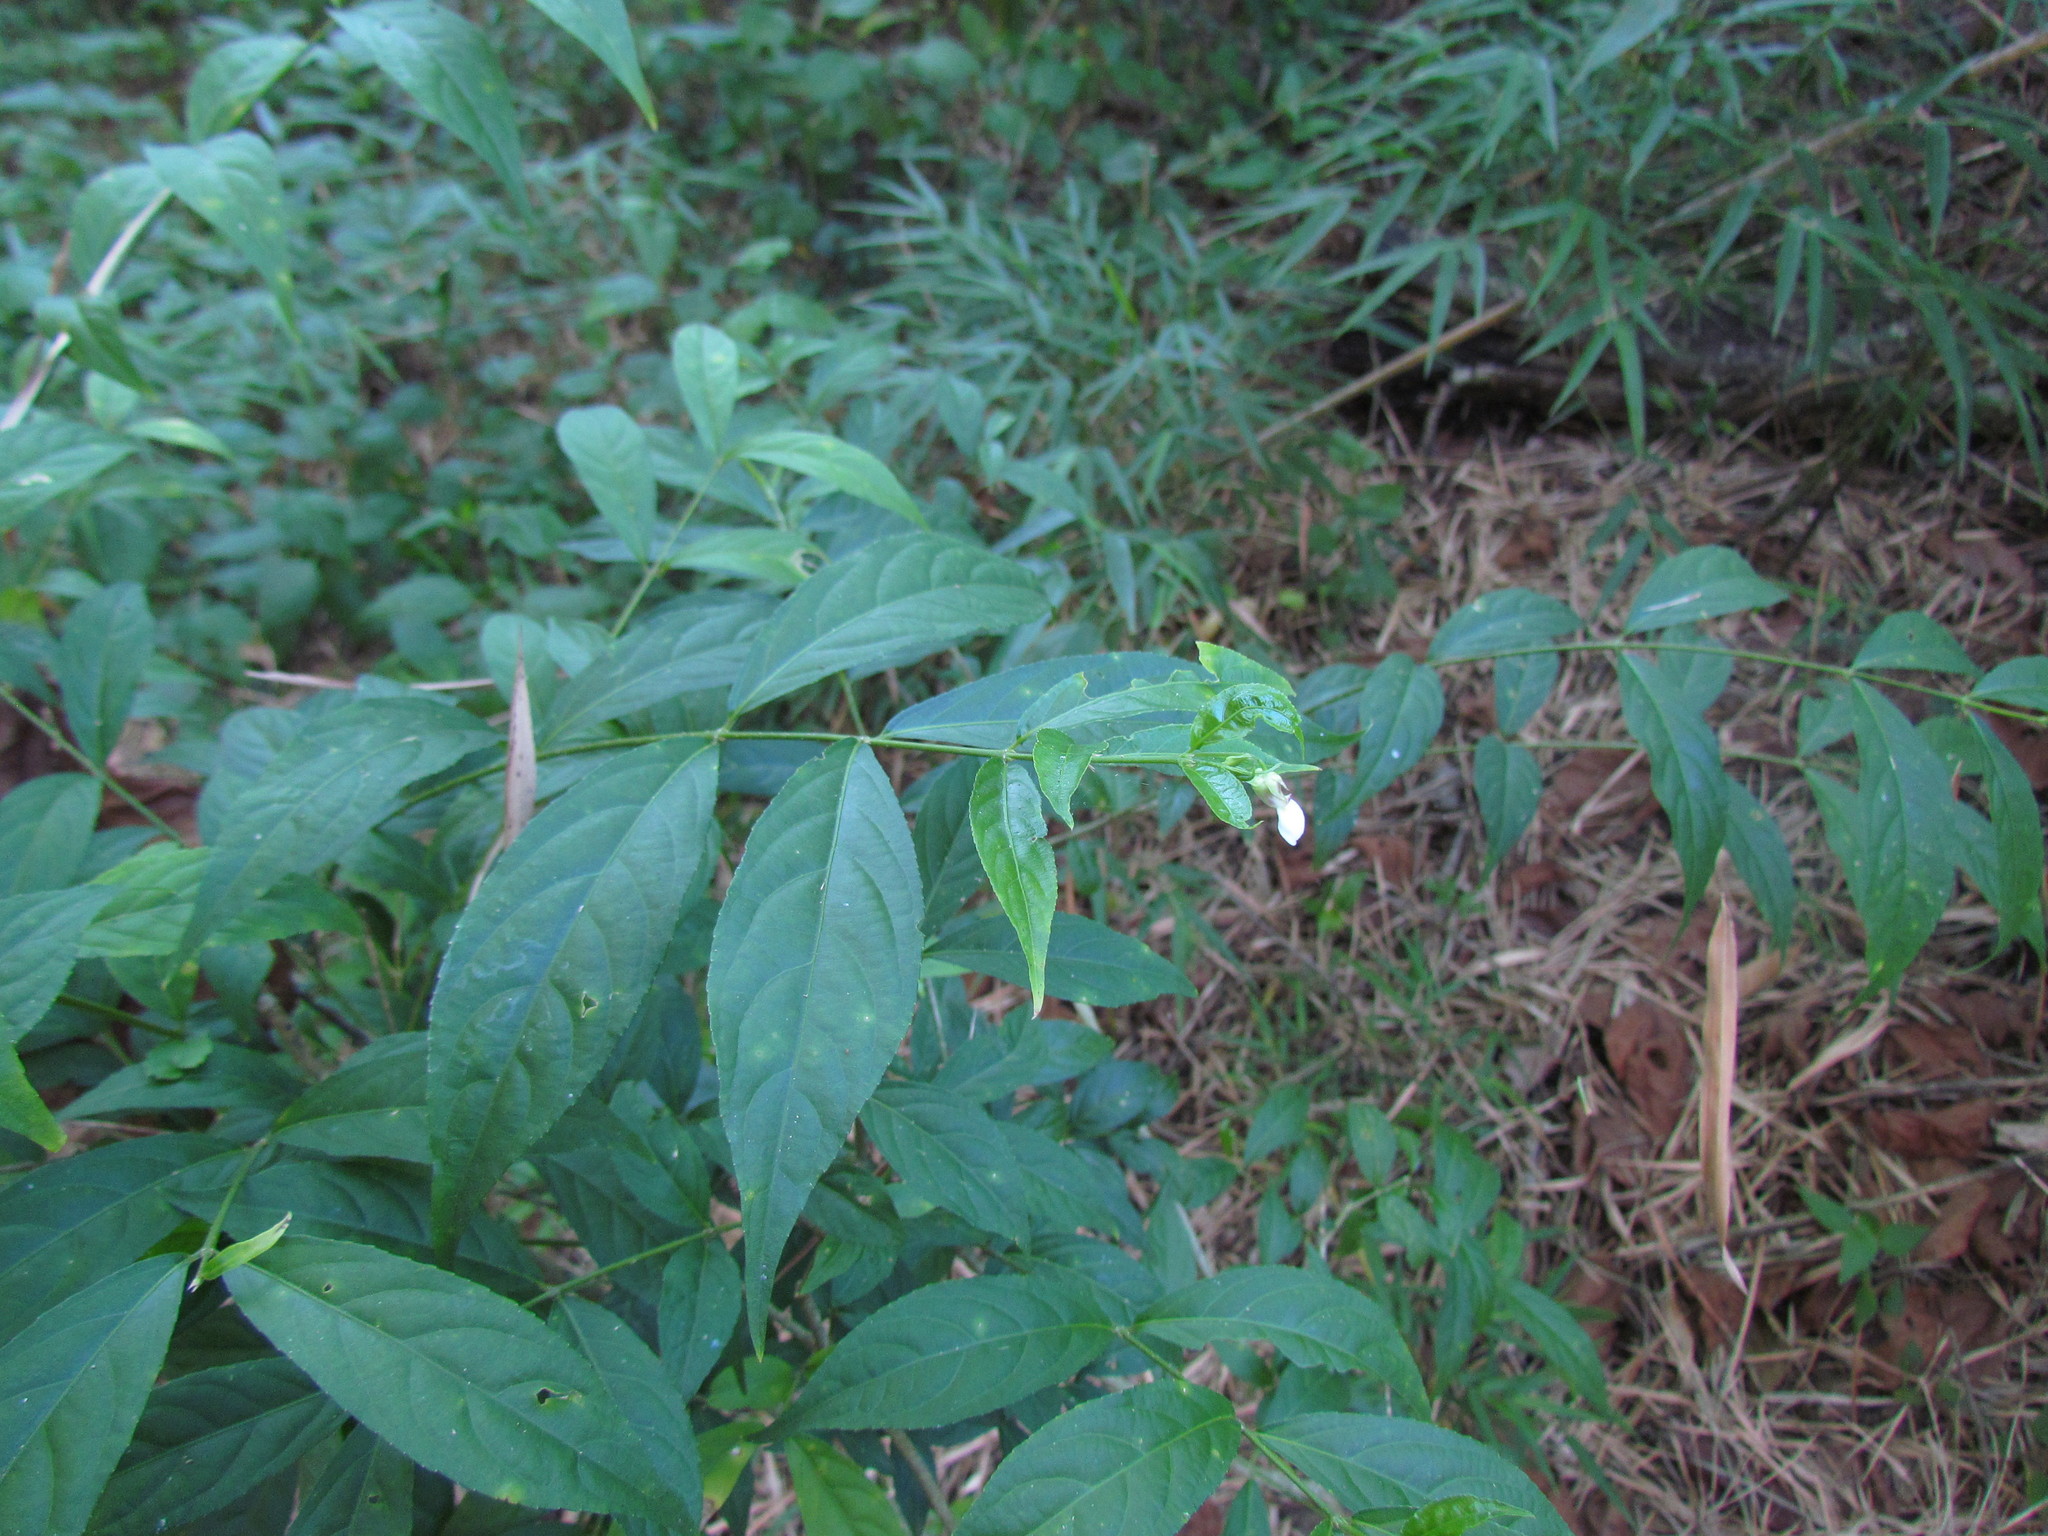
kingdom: Plantae
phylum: Tracheophyta
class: Magnoliopsida
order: Malpighiales
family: Violaceae
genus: Pombalia
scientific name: Pombalia bigibbosa
